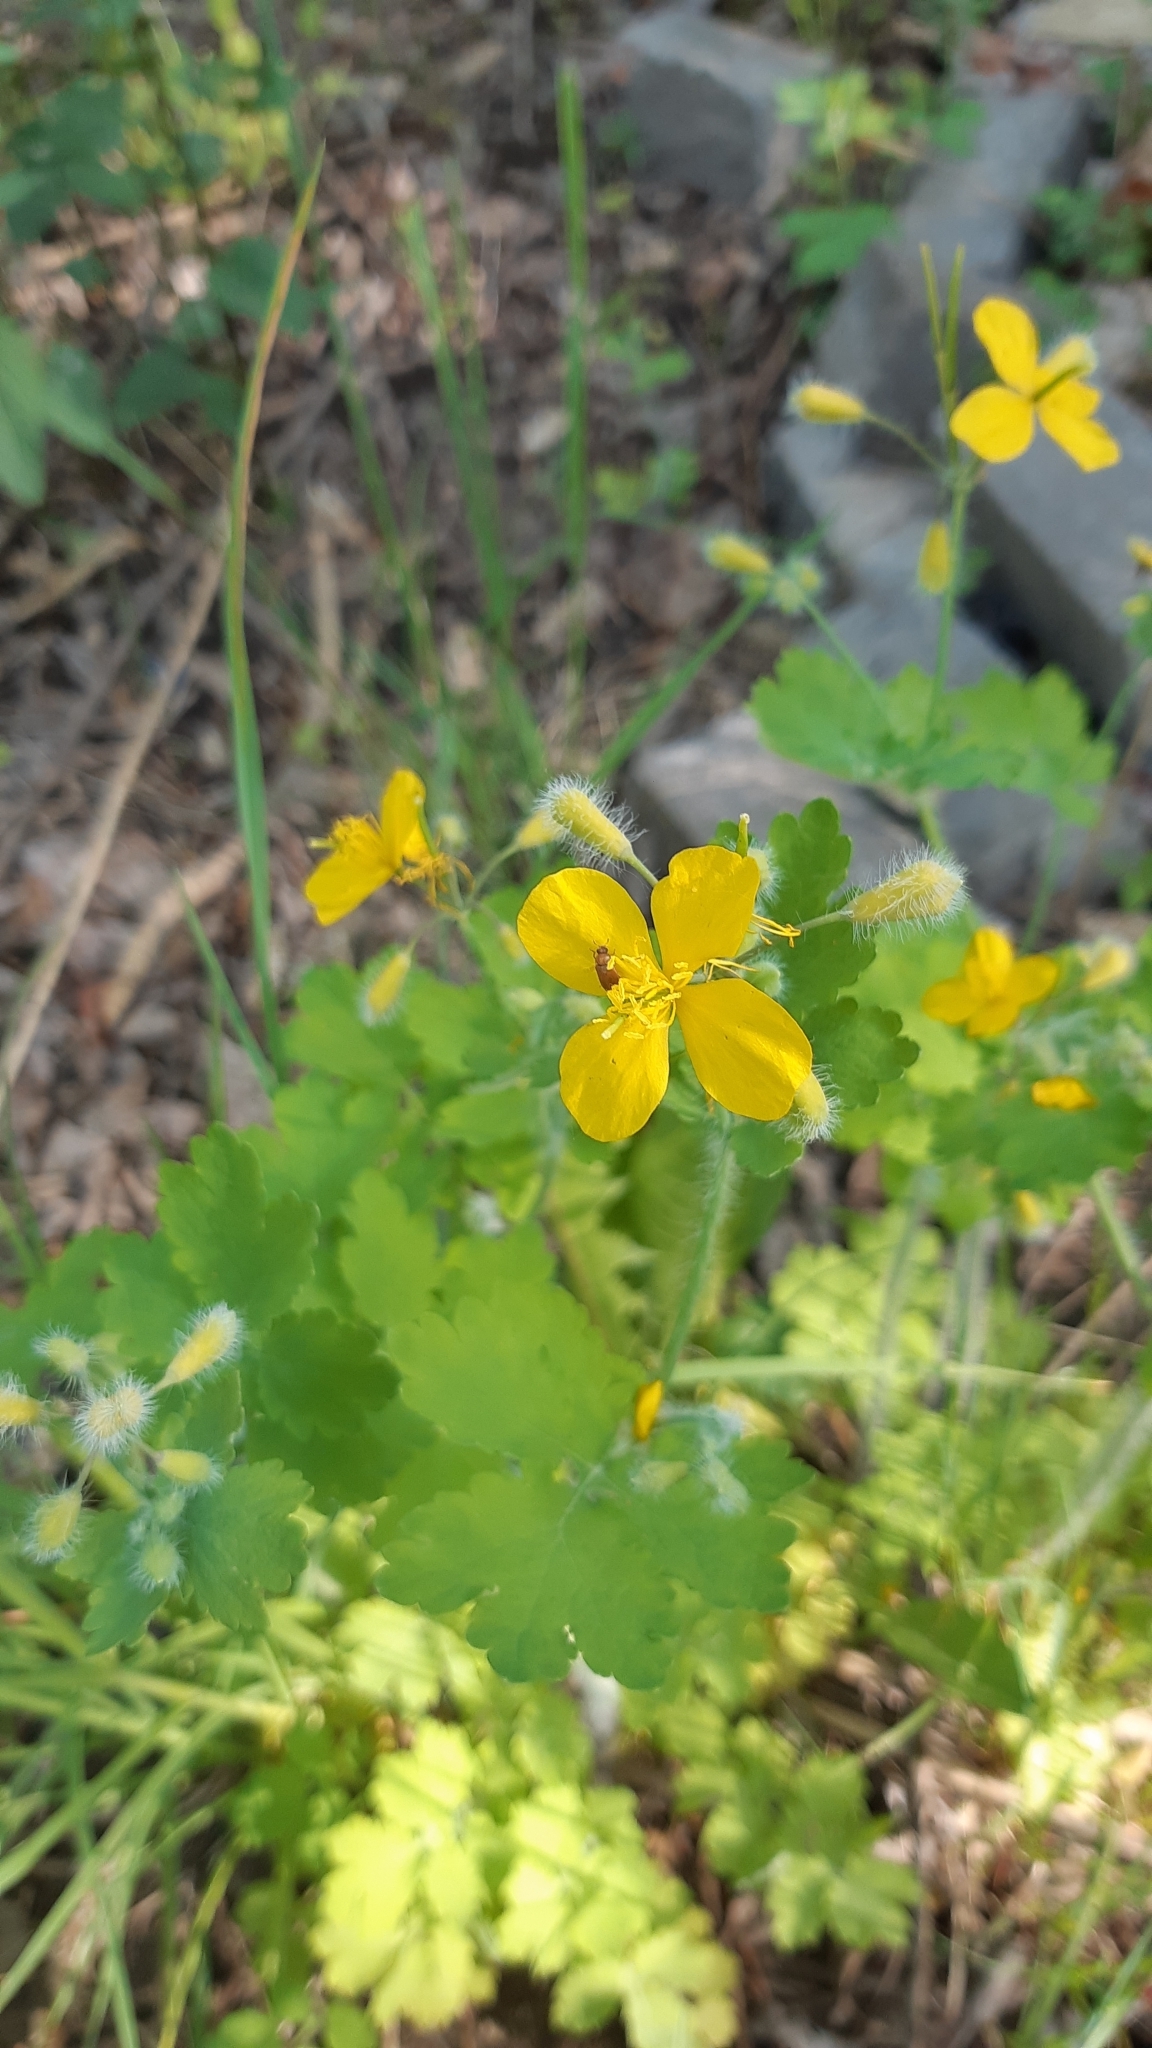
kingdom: Plantae
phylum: Tracheophyta
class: Magnoliopsida
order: Ranunculales
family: Papaveraceae
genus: Chelidonium
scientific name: Chelidonium majus
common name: Greater celandine
